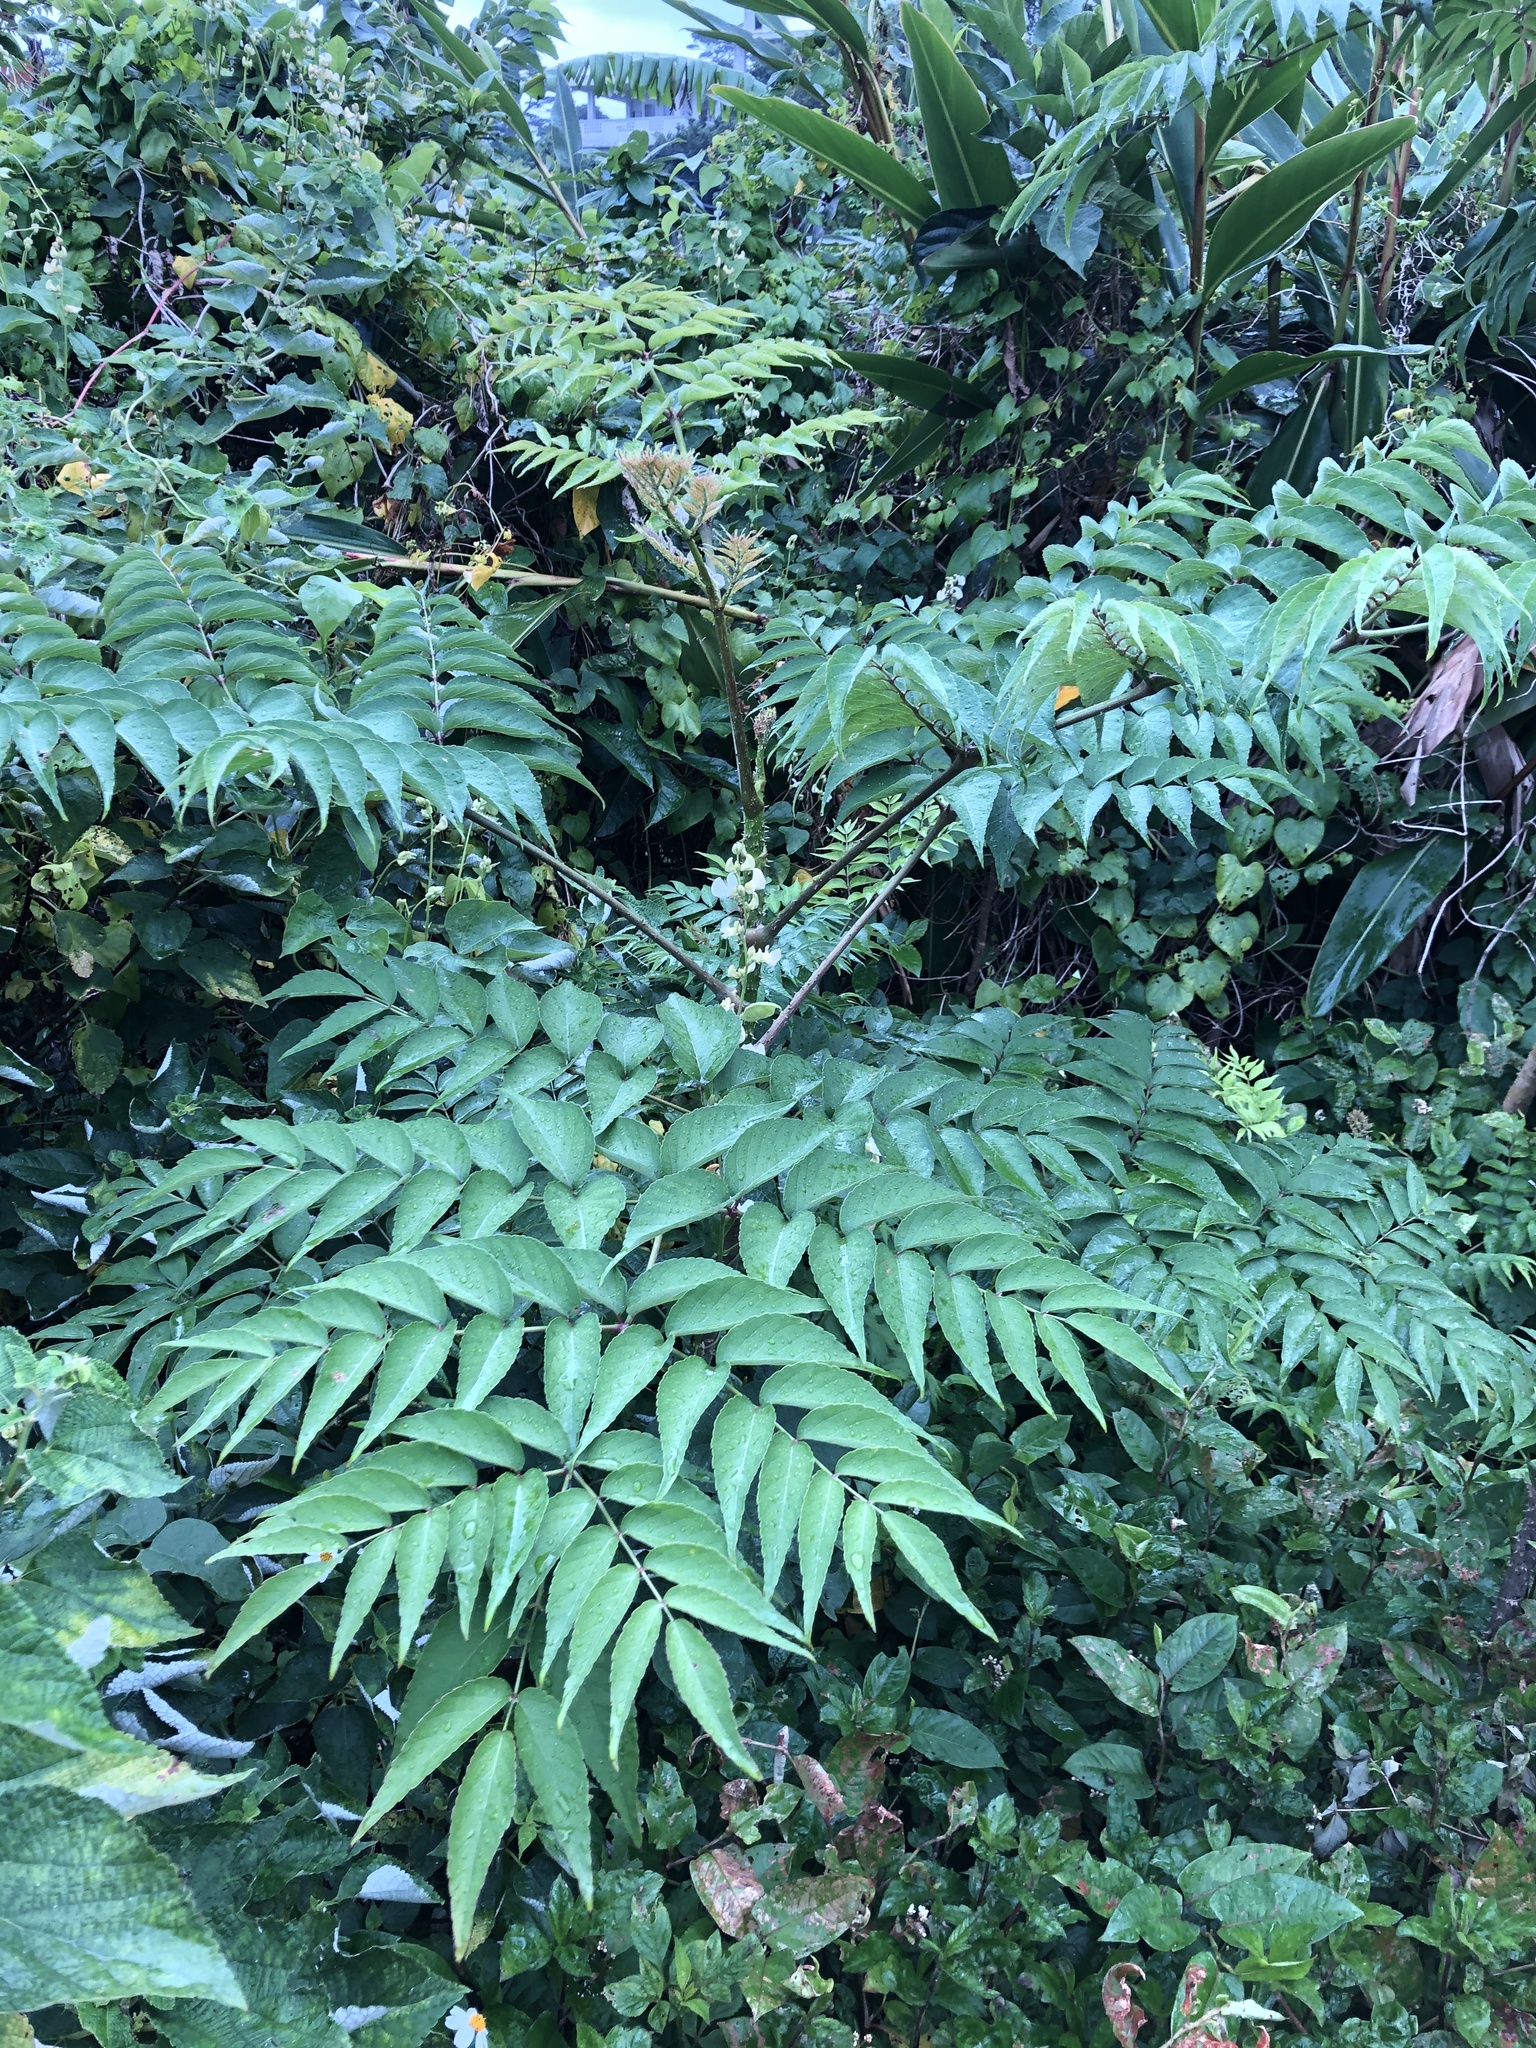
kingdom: Plantae
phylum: Tracheophyta
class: Magnoliopsida
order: Apiales
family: Araliaceae
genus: Aralia
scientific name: Aralia elata
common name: Japanese angelica-tree
